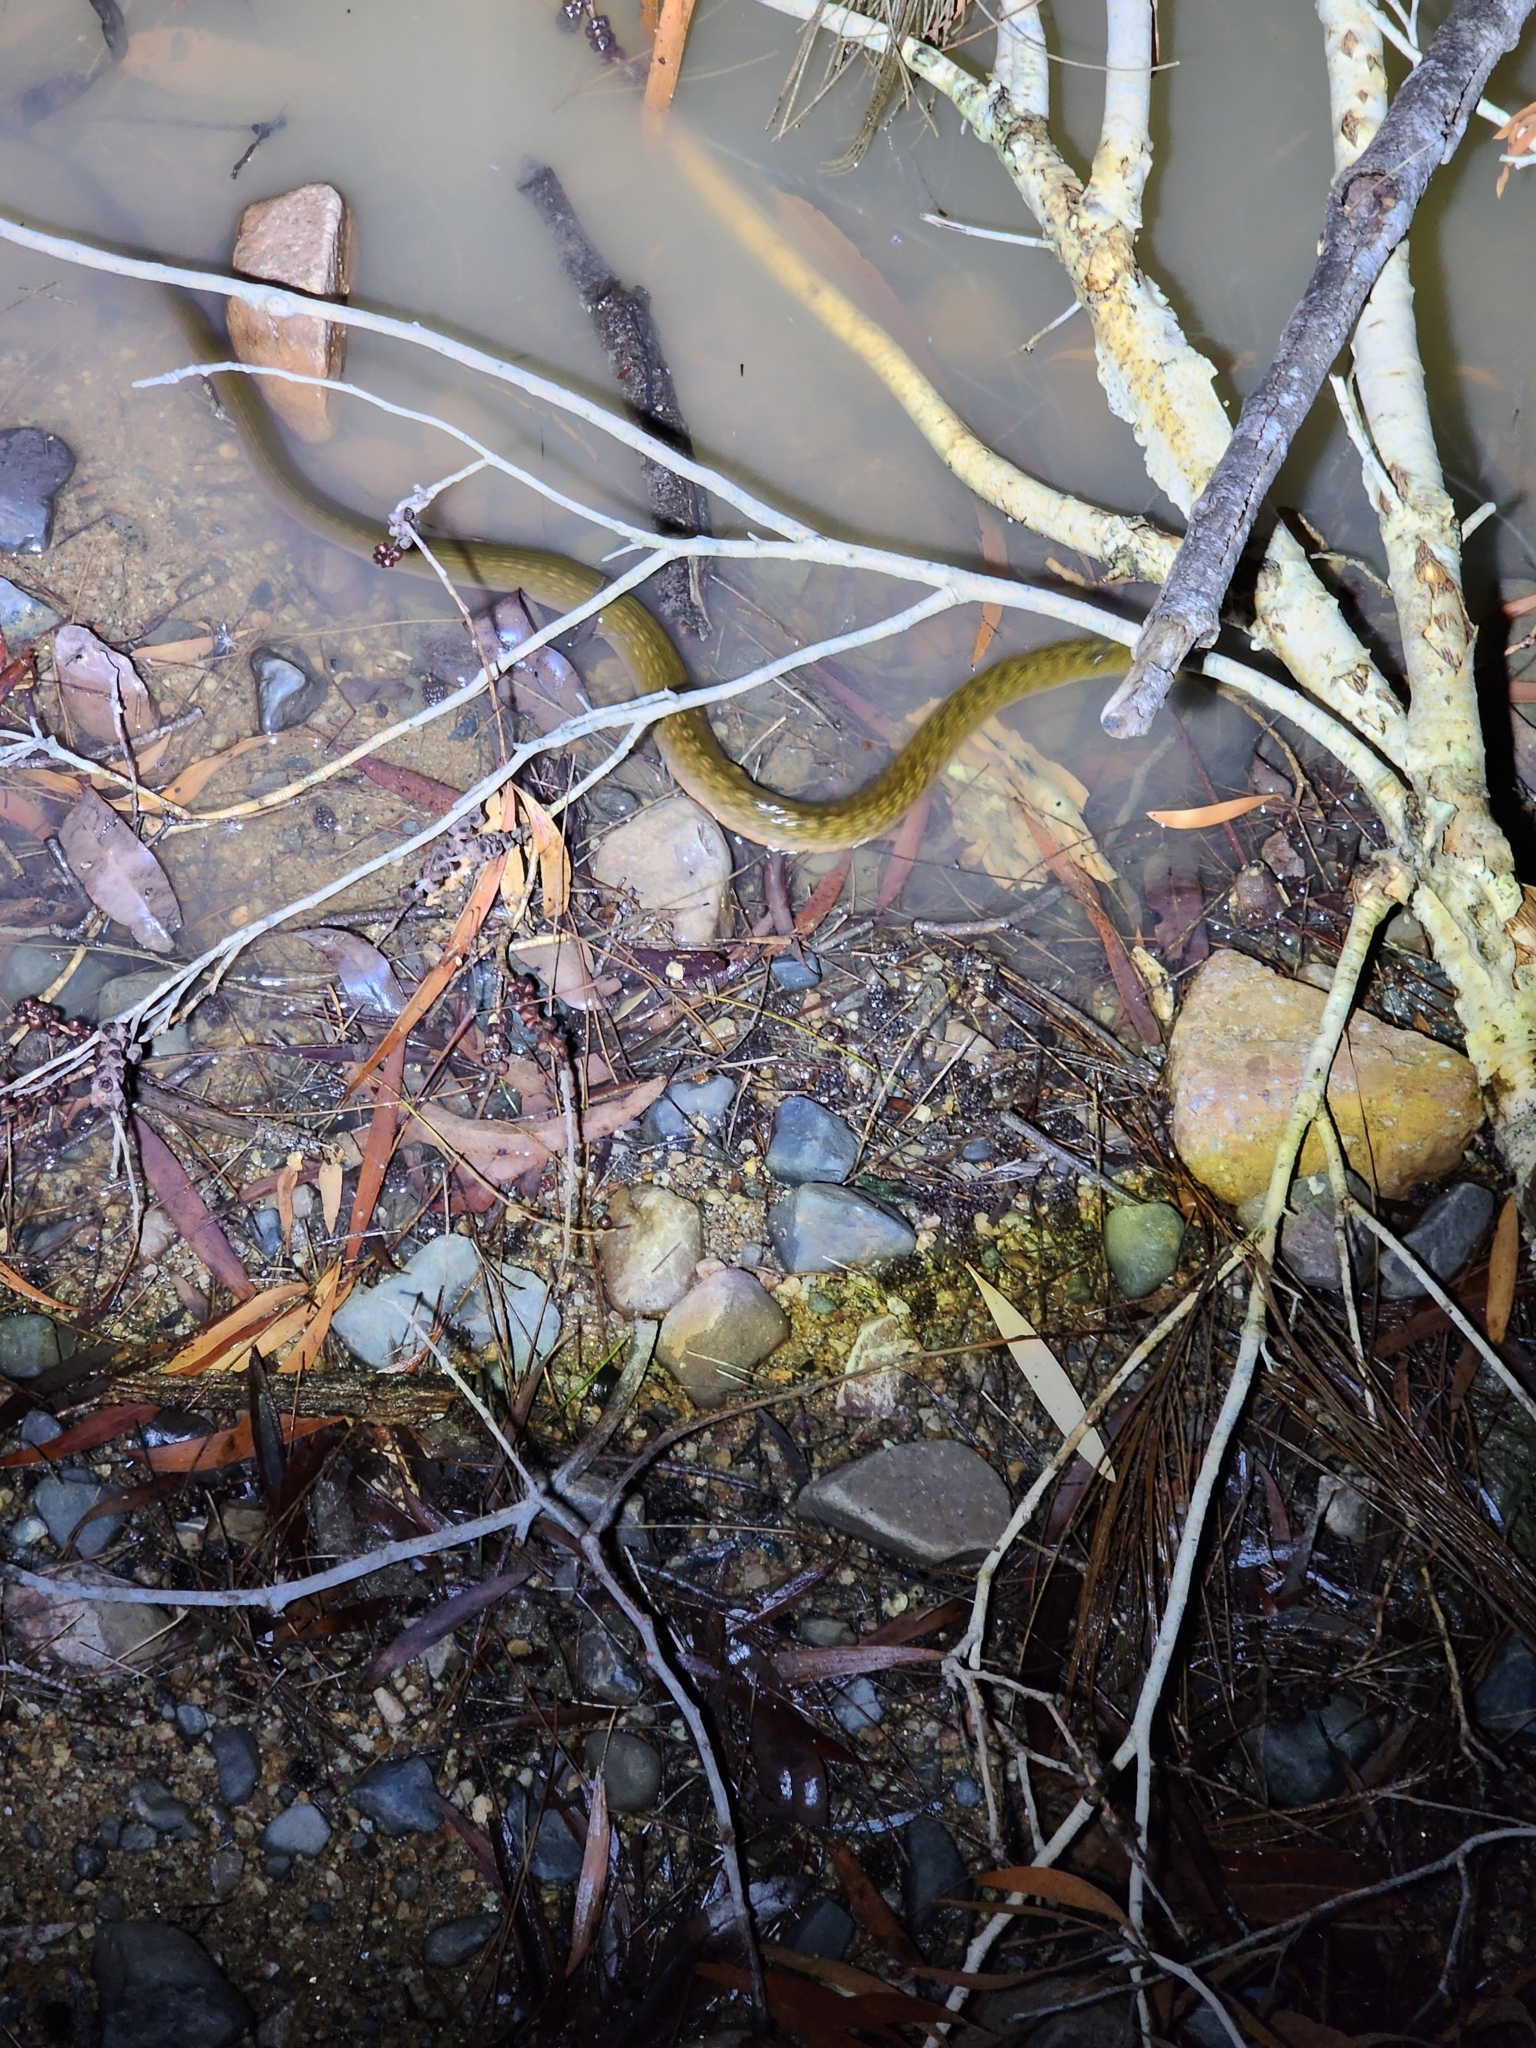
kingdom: Animalia
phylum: Chordata
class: Squamata
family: Colubridae
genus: Tropidonophis
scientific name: Tropidonophis mairii
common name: Common keelback
